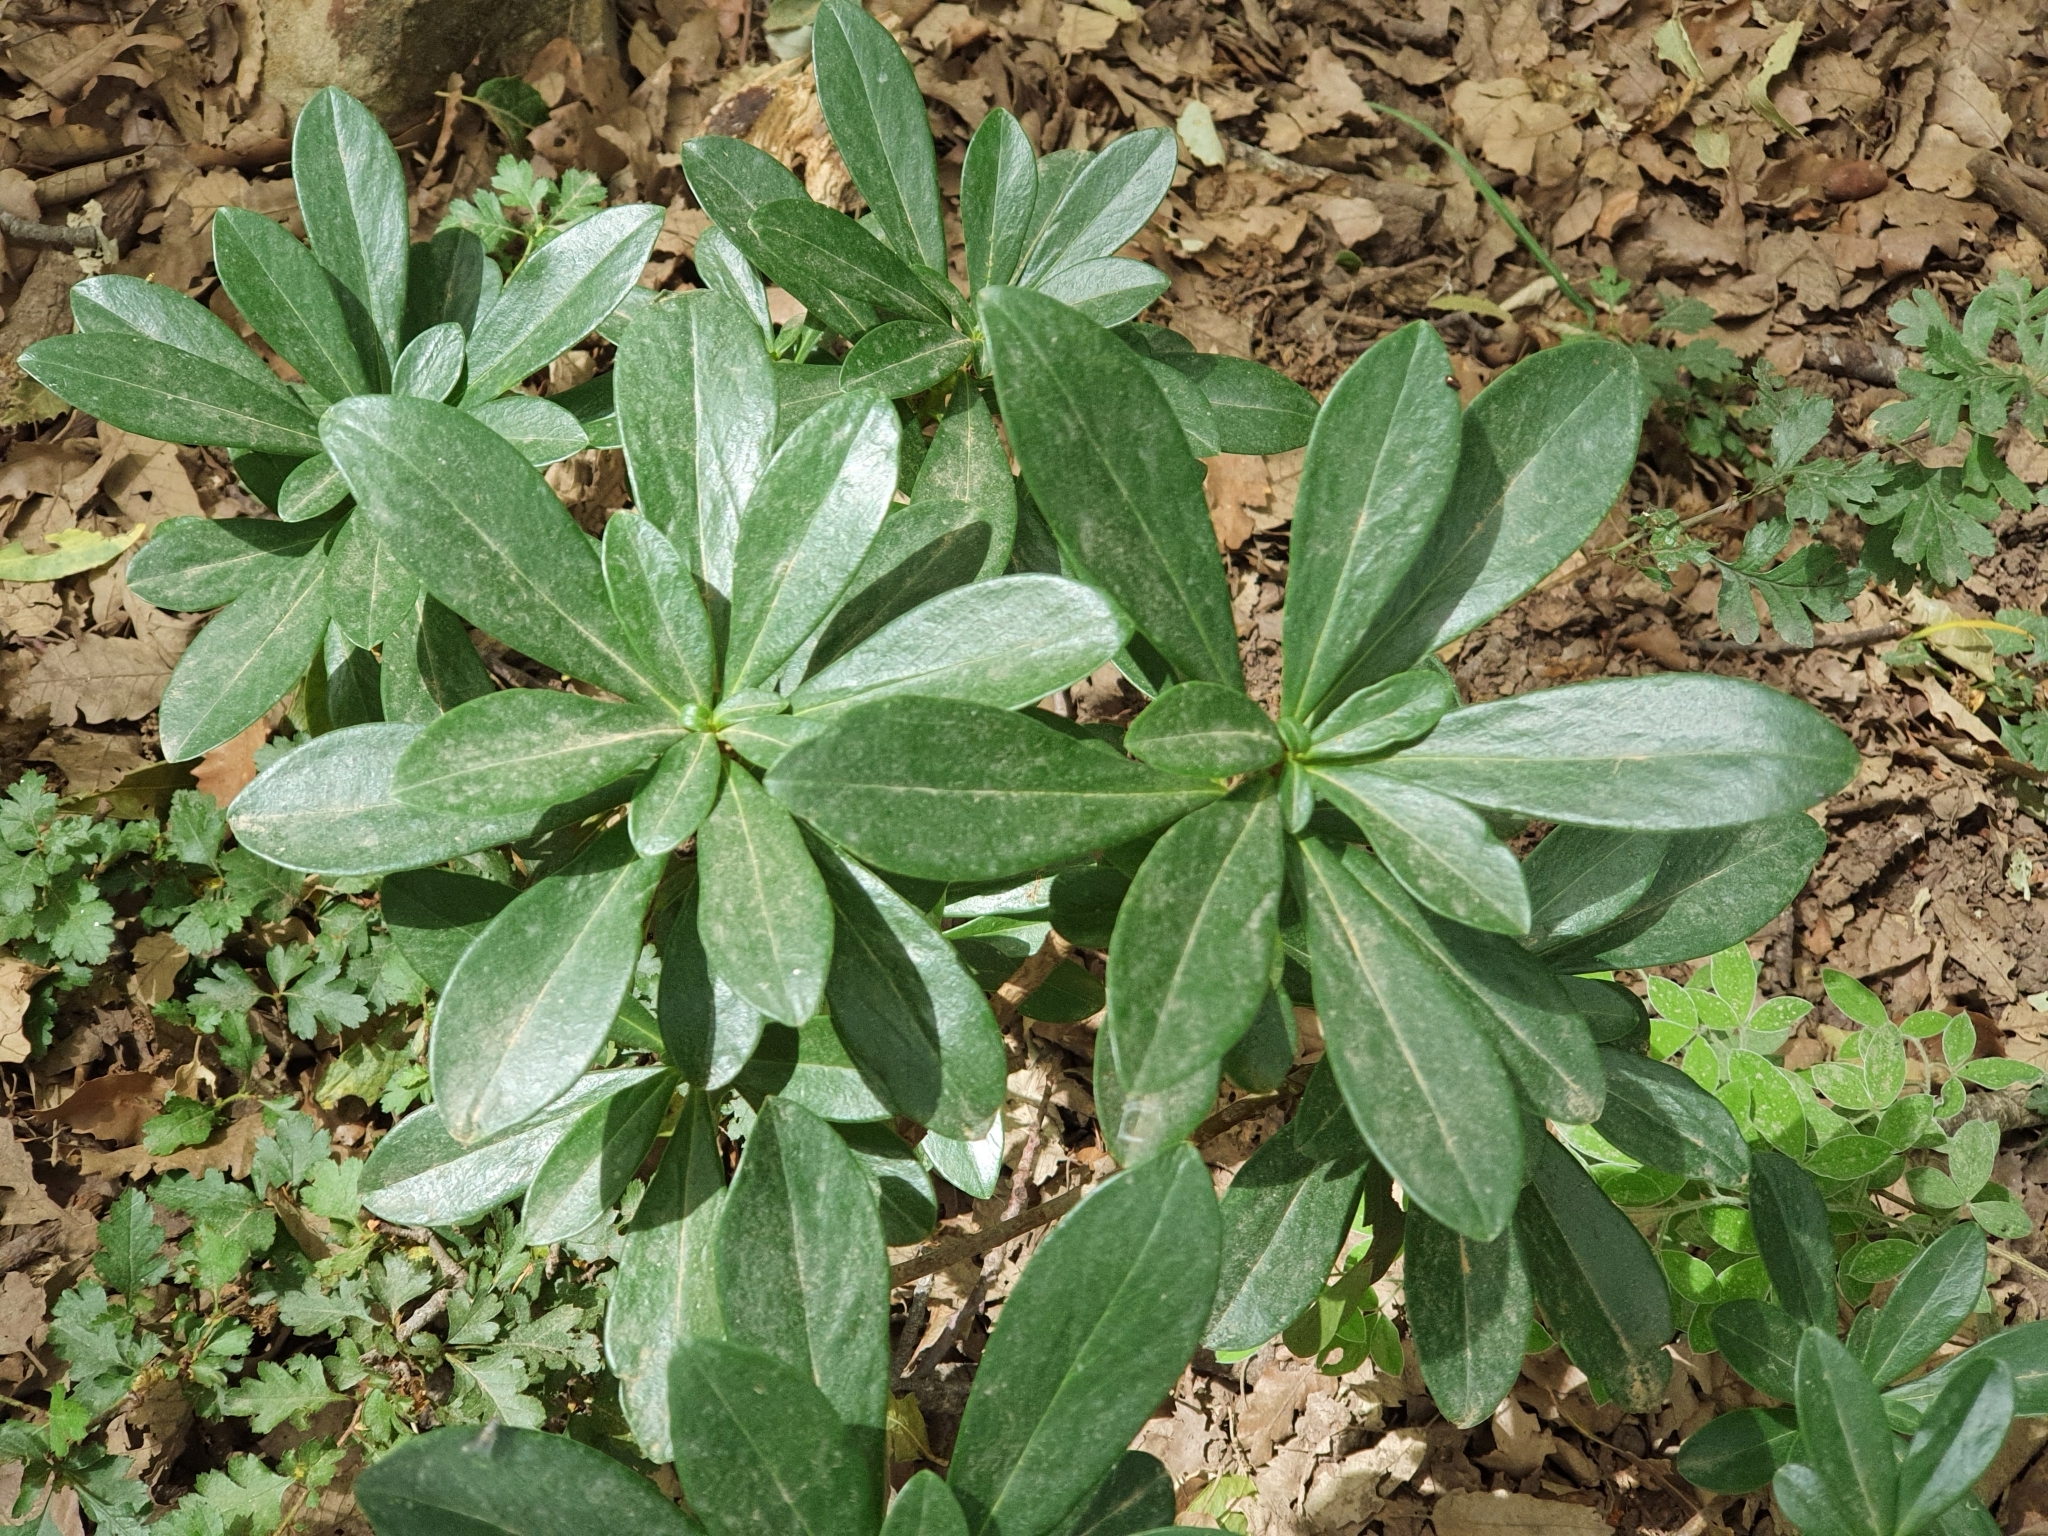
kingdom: Plantae
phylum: Tracheophyta
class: Magnoliopsida
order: Malvales
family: Thymelaeaceae
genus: Daphne
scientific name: Daphne laureola
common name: Spurge-laurel
